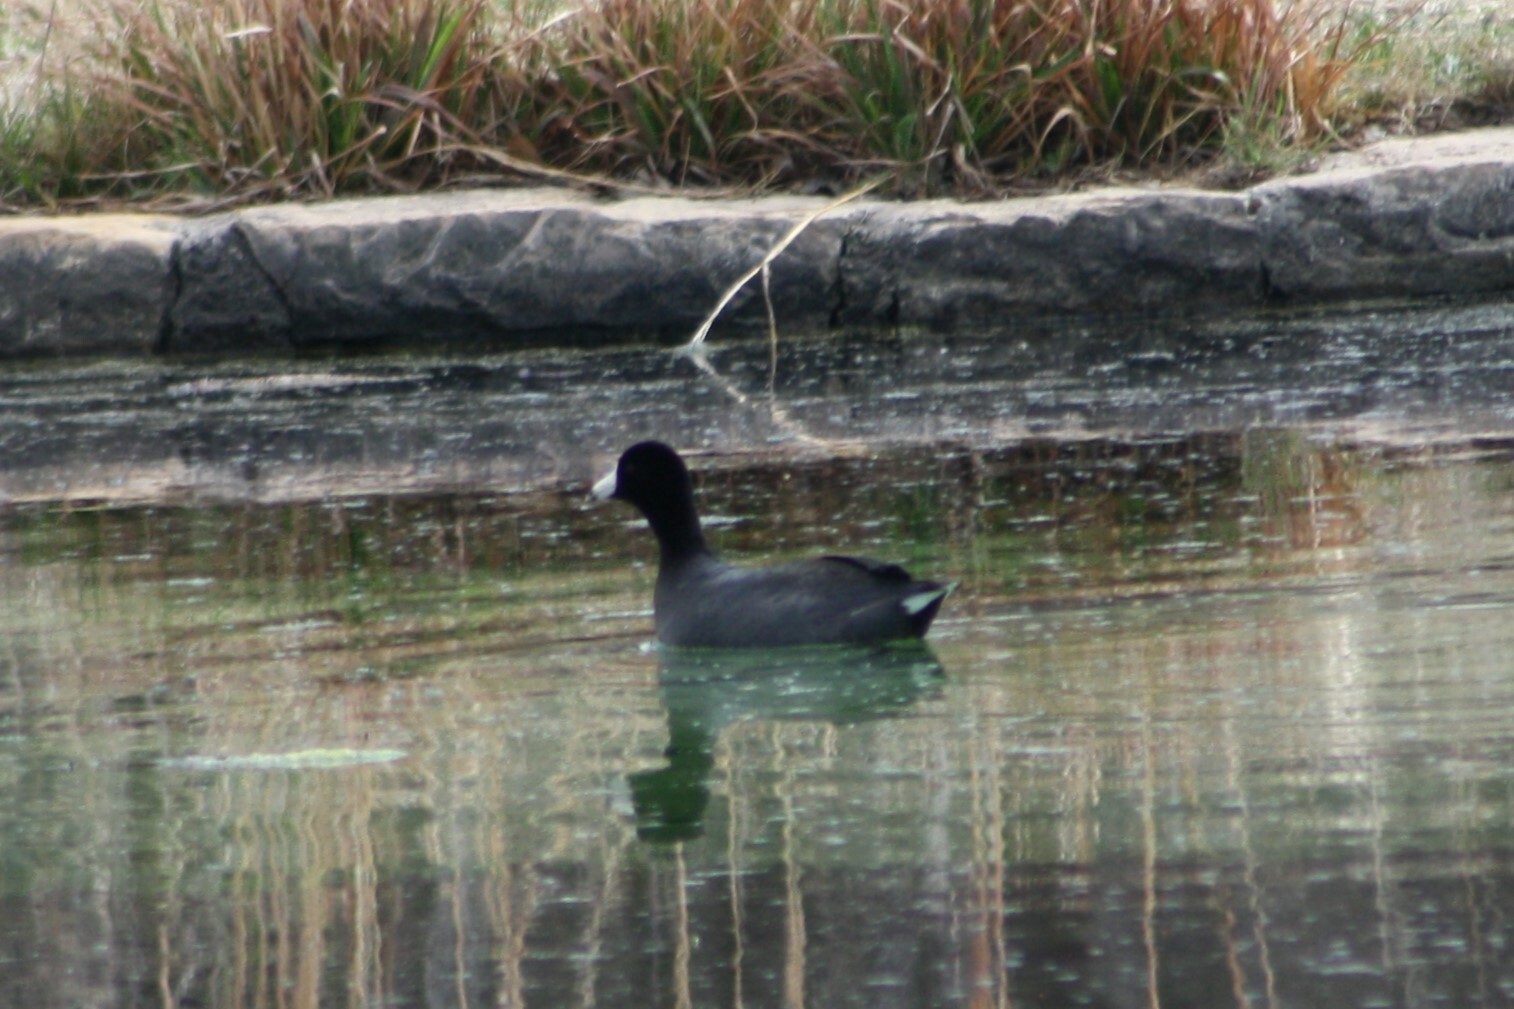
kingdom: Animalia
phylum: Chordata
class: Aves
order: Gruiformes
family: Rallidae
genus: Fulica
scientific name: Fulica americana
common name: American coot
